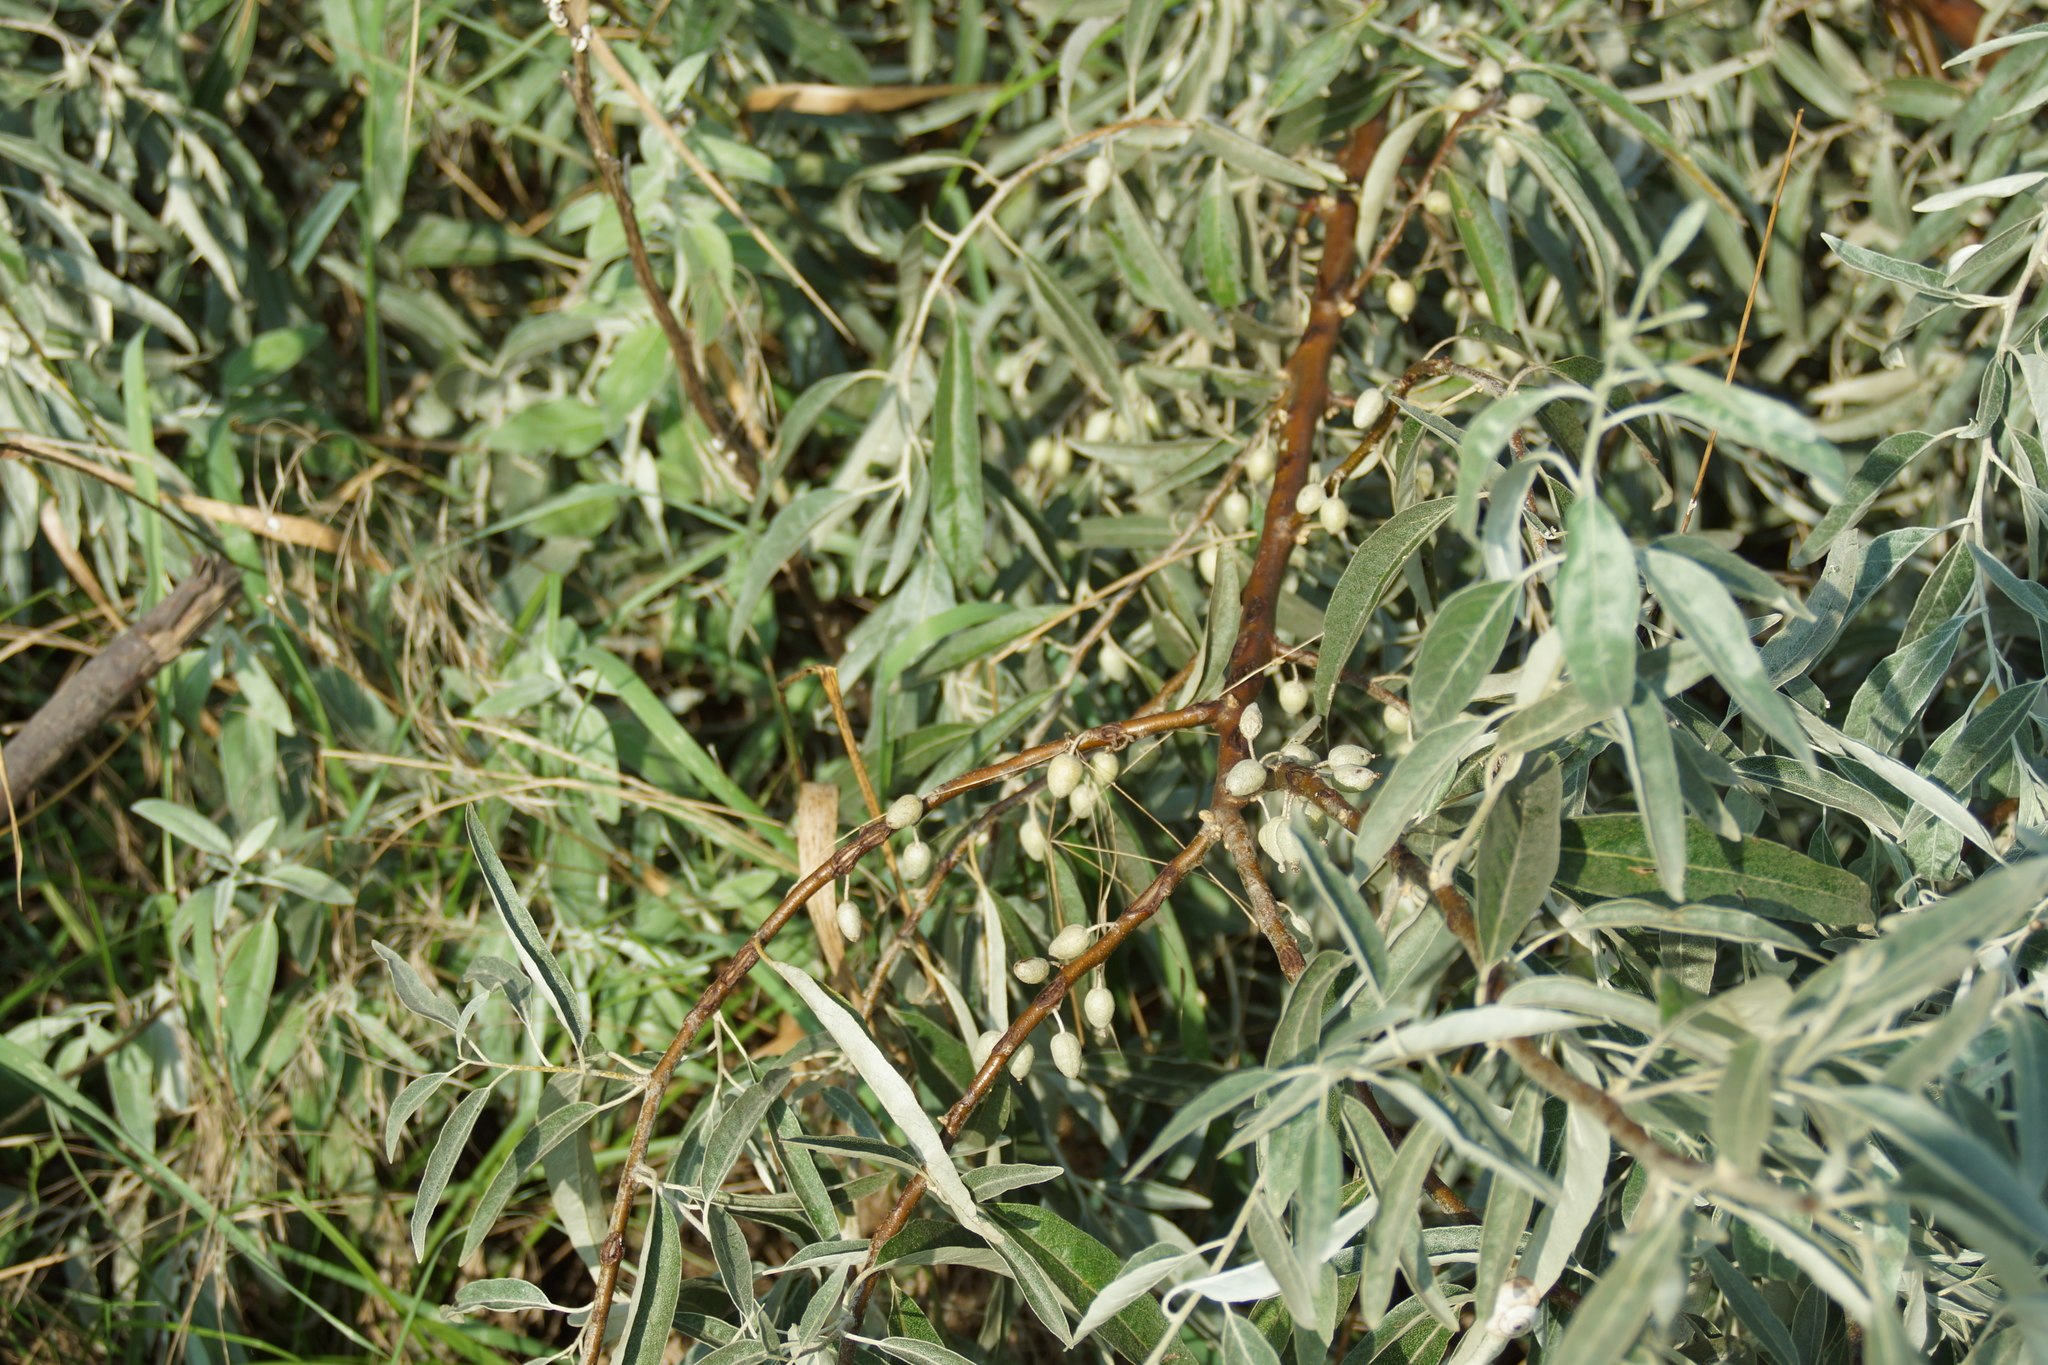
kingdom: Plantae
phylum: Tracheophyta
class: Magnoliopsida
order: Rosales
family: Elaeagnaceae
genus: Elaeagnus
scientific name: Elaeagnus angustifolia
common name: Russian olive
